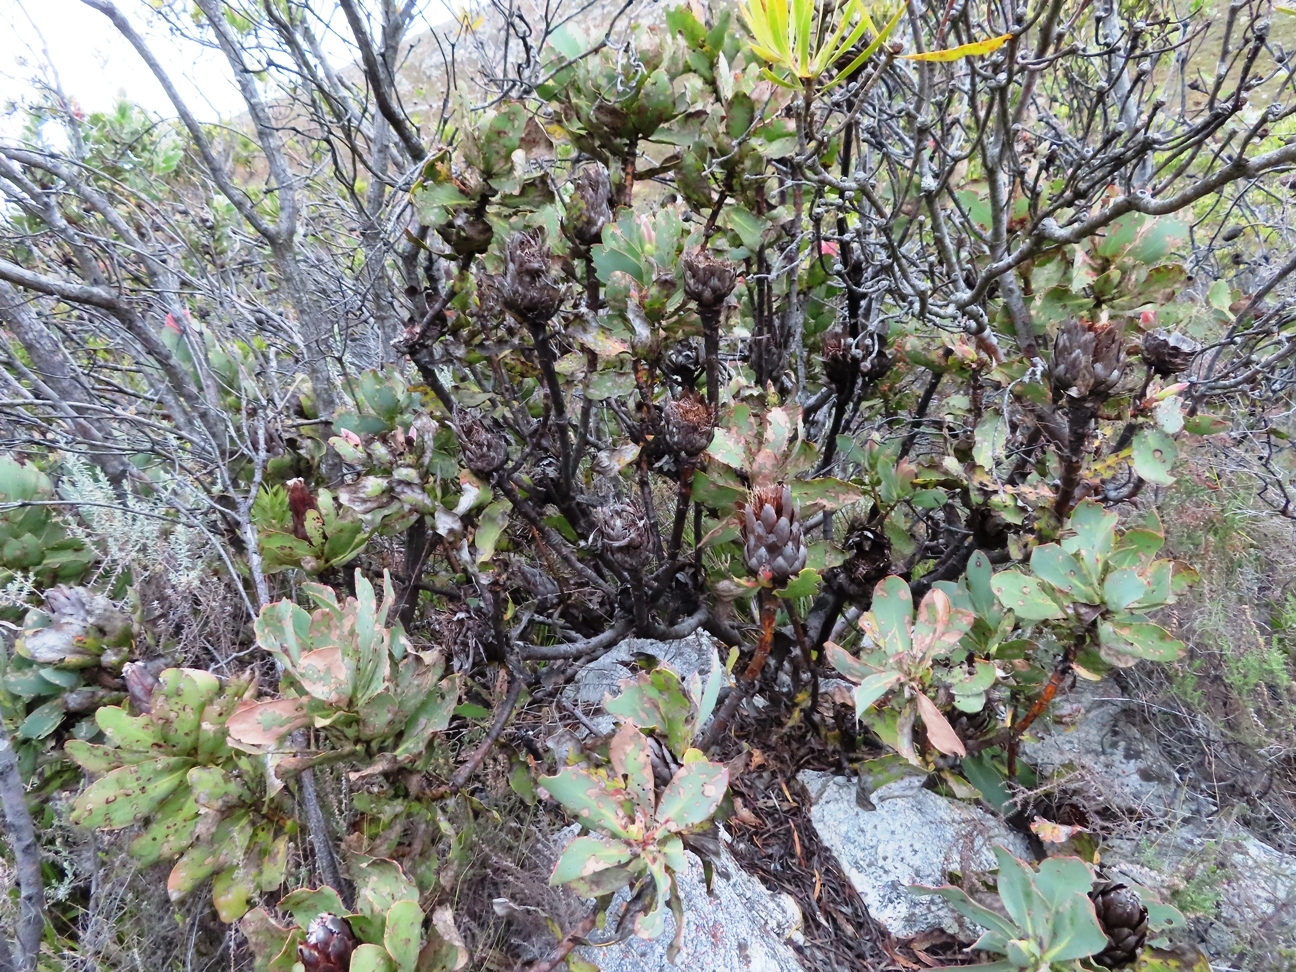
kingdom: Plantae
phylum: Tracheophyta
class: Magnoliopsida
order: Proteales
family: Proteaceae
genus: Protea
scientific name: Protea grandiceps
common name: Red sugarbush
